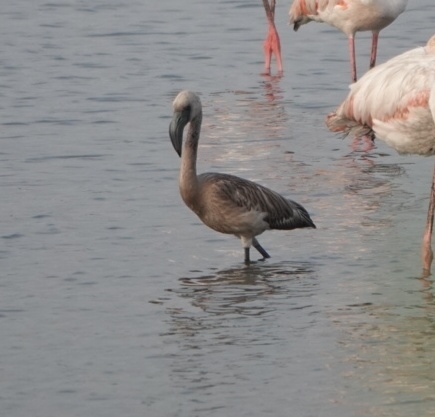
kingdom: Animalia
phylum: Chordata
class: Aves
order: Phoenicopteriformes
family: Phoenicopteridae
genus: Phoeniconaias
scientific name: Phoeniconaias minor
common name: Lesser flamingo
